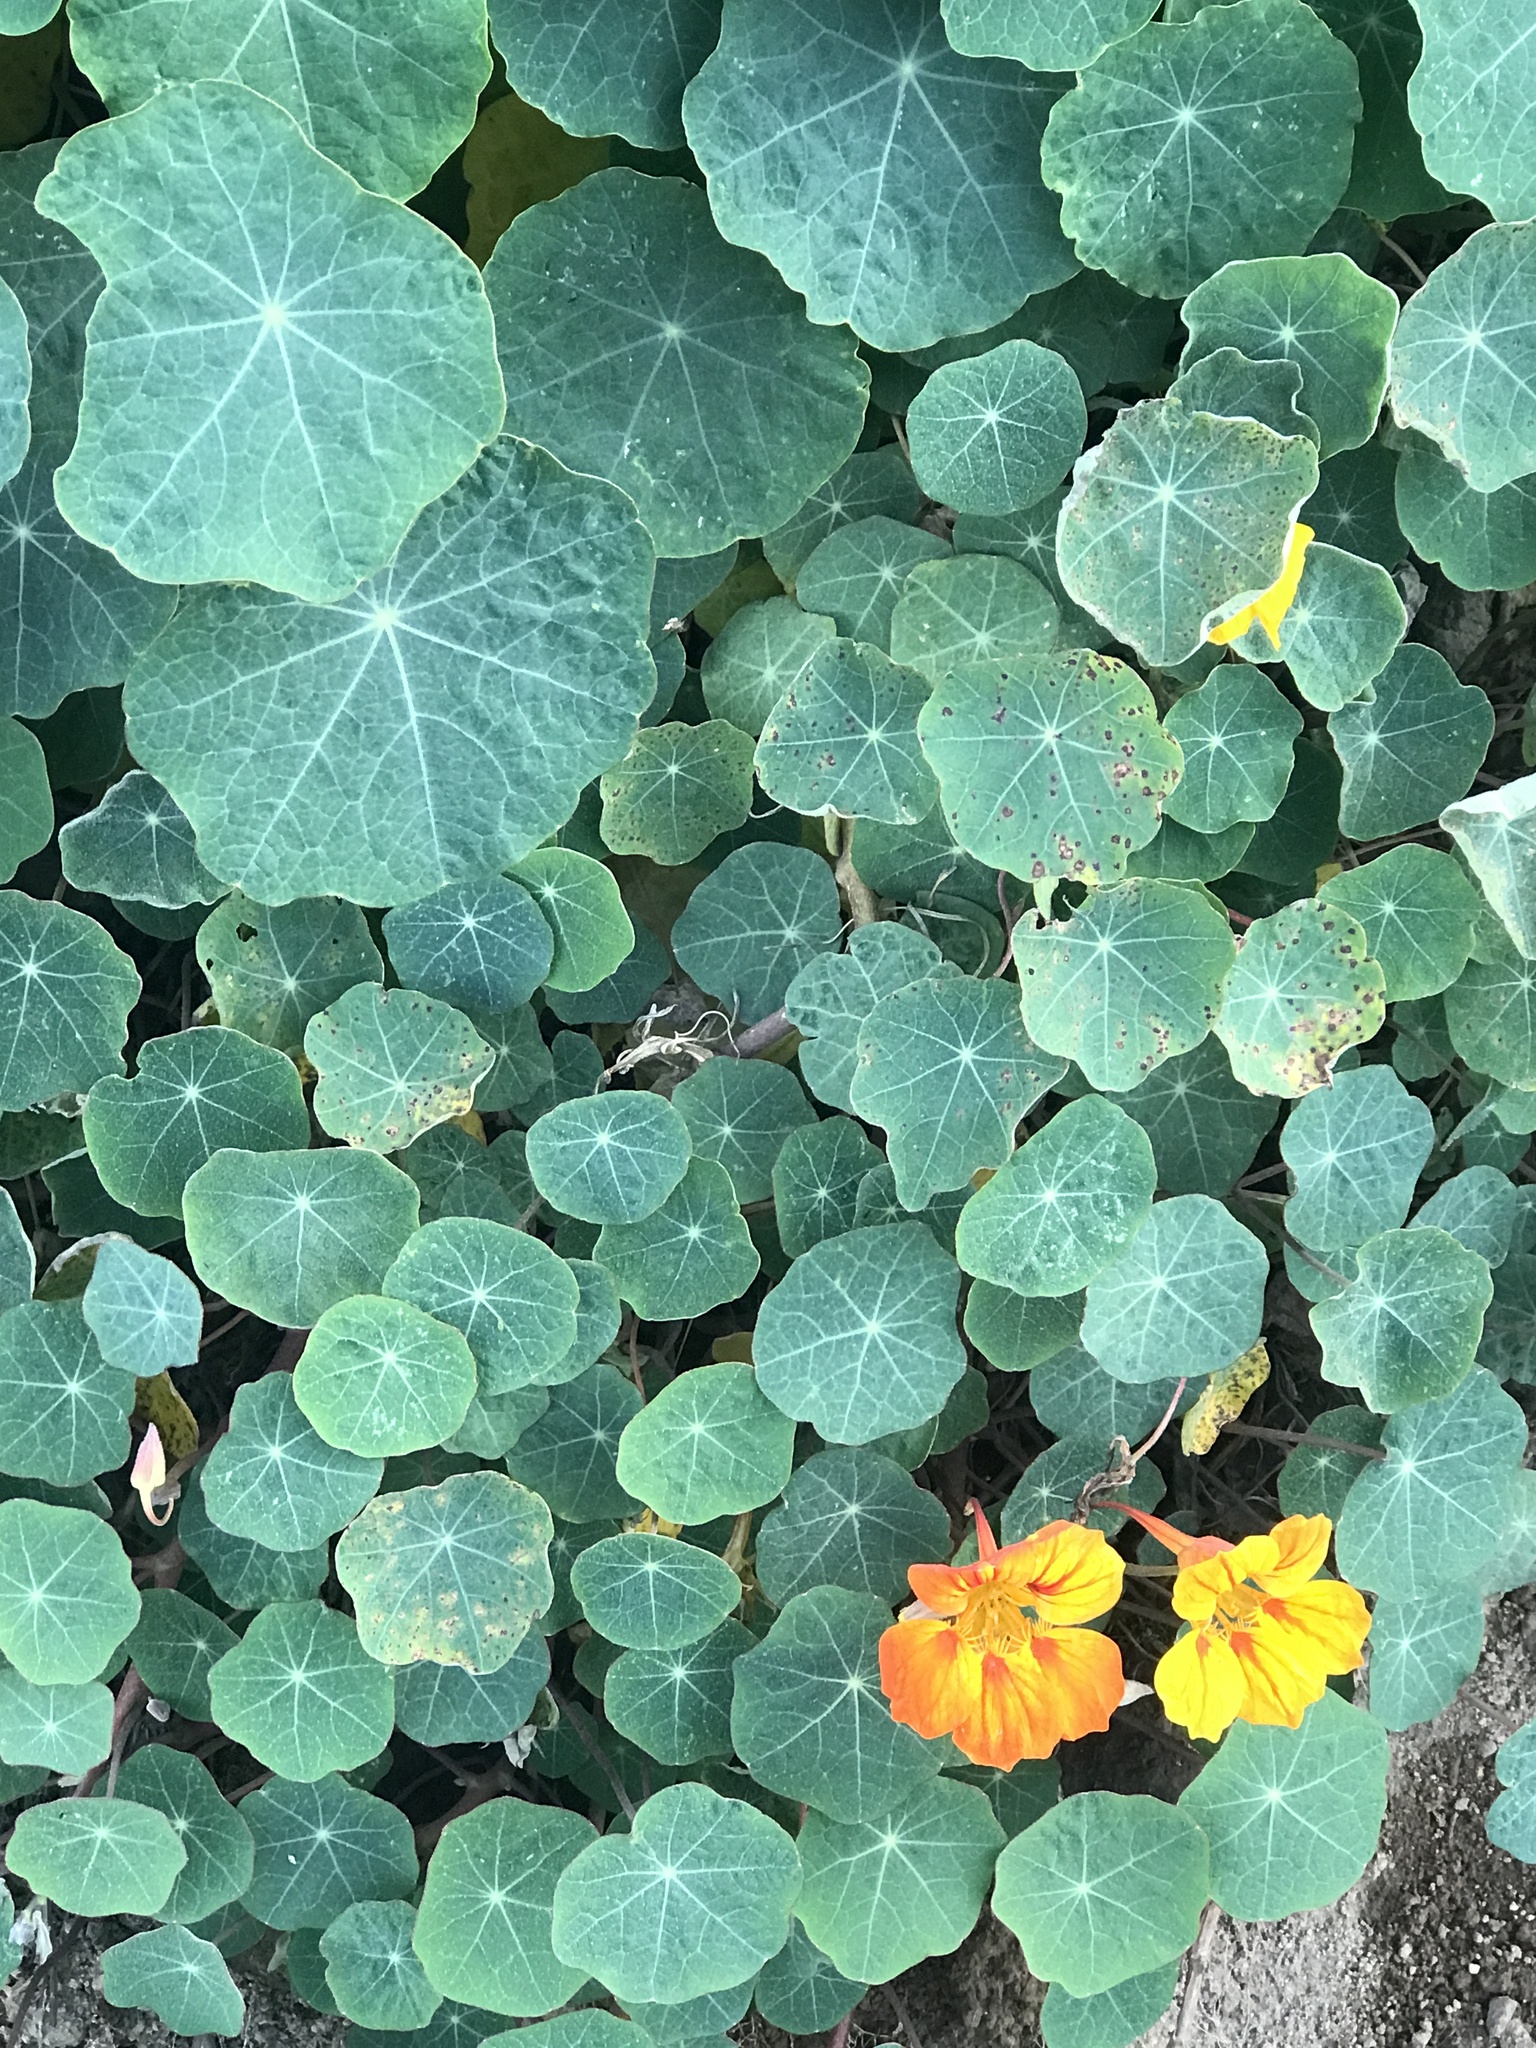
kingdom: Plantae
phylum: Tracheophyta
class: Magnoliopsida
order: Brassicales
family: Tropaeolaceae
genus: Tropaeolum
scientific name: Tropaeolum majus
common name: Nasturtium
